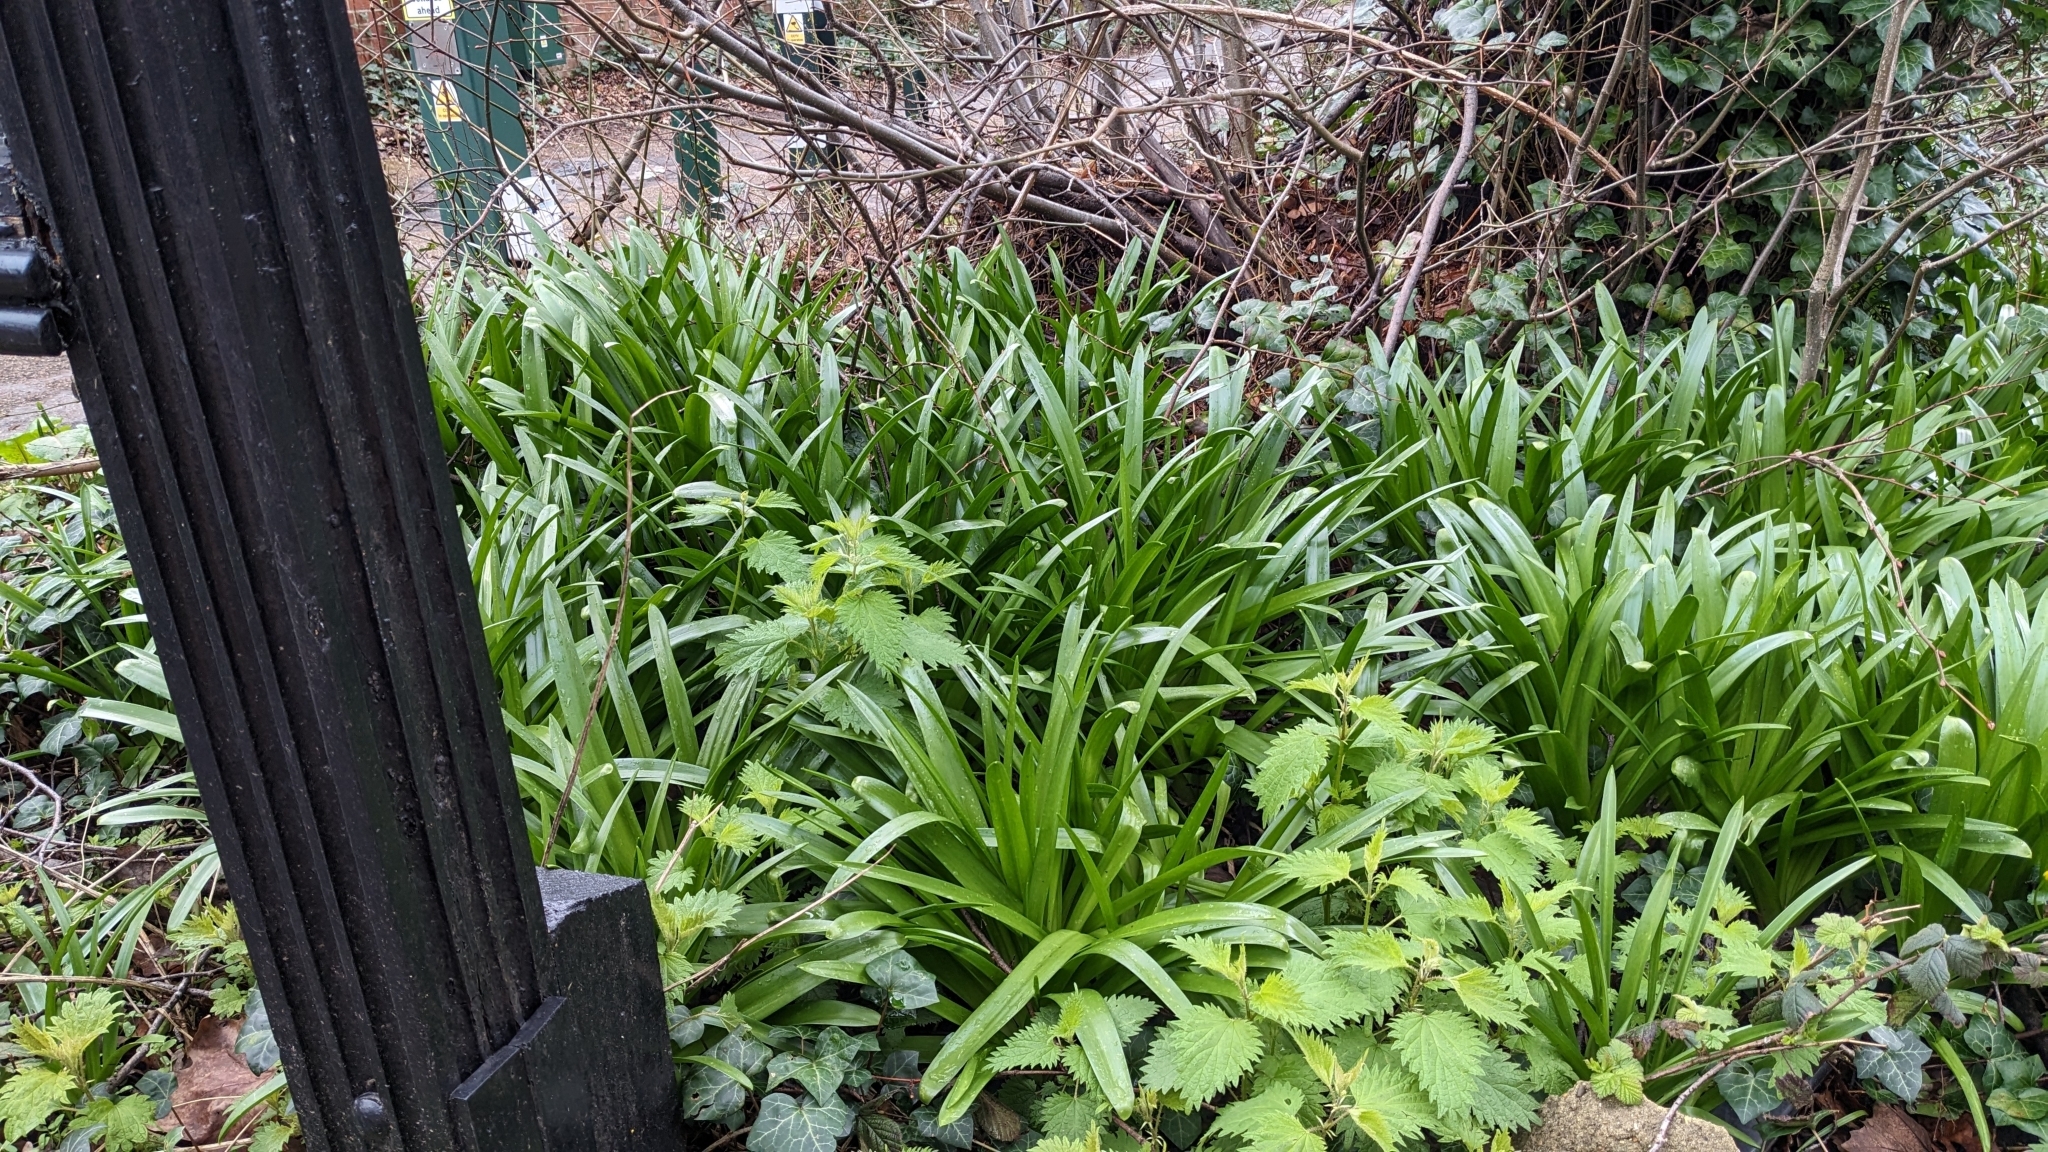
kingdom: Fungi
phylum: Basidiomycota
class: Pucciniomycetes
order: Pucciniales
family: Pucciniaceae
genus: Uromyces
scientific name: Uromyces hyacinthi
